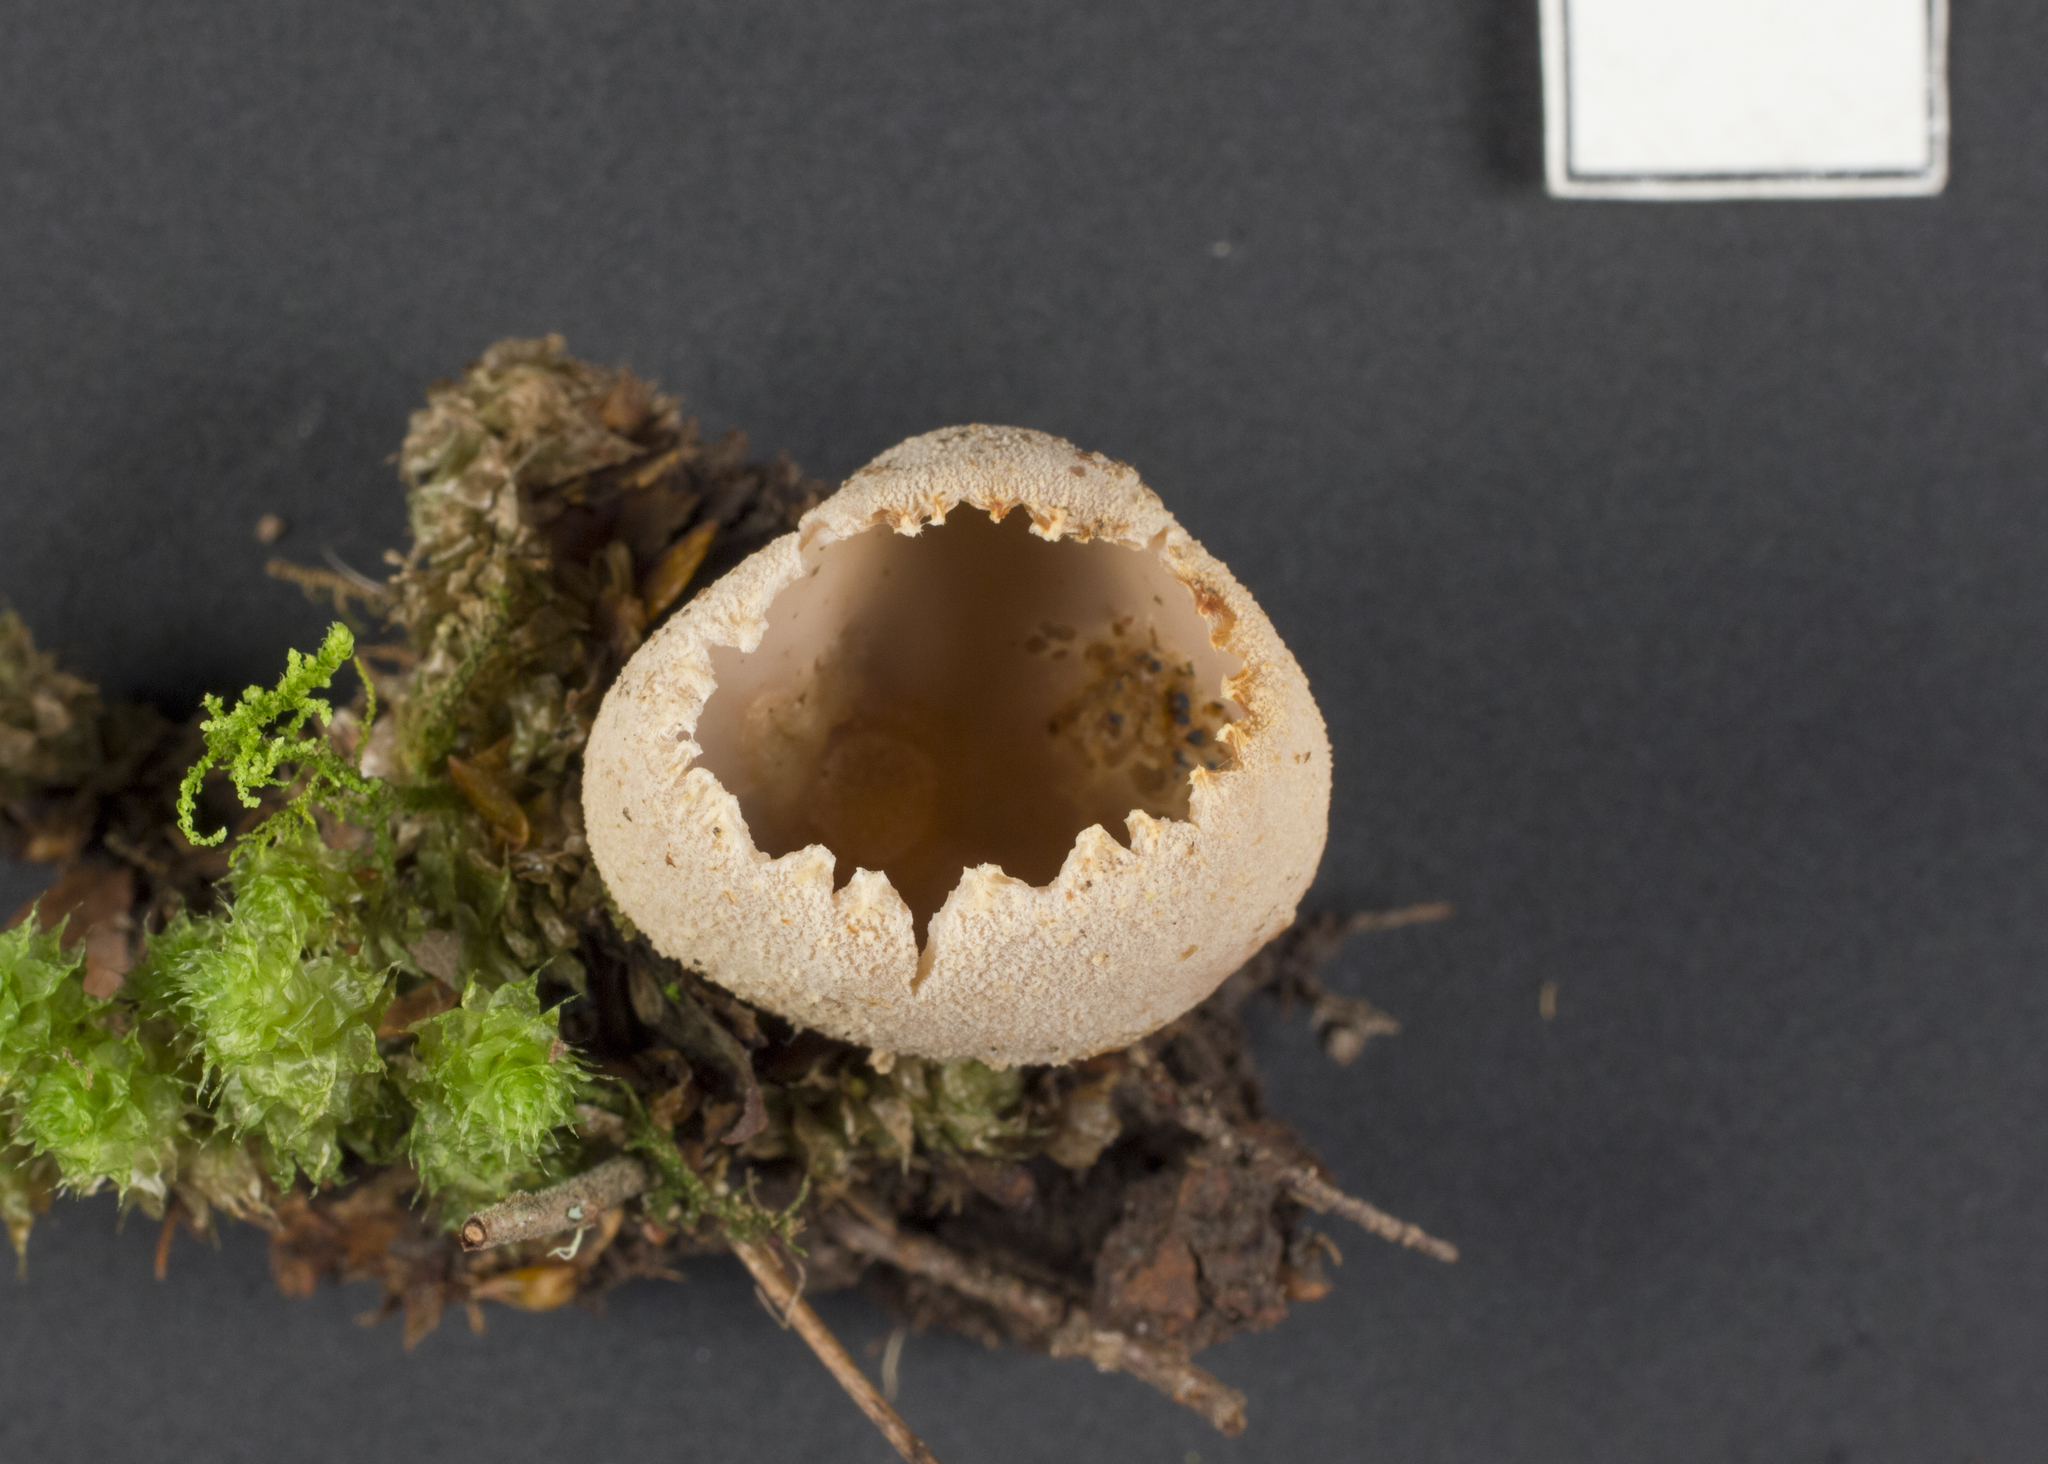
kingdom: Fungi
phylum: Ascomycota
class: Pezizomycetes
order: Pezizales
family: Tarzettaceae
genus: Tarzetta
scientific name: Tarzetta jafneospora
